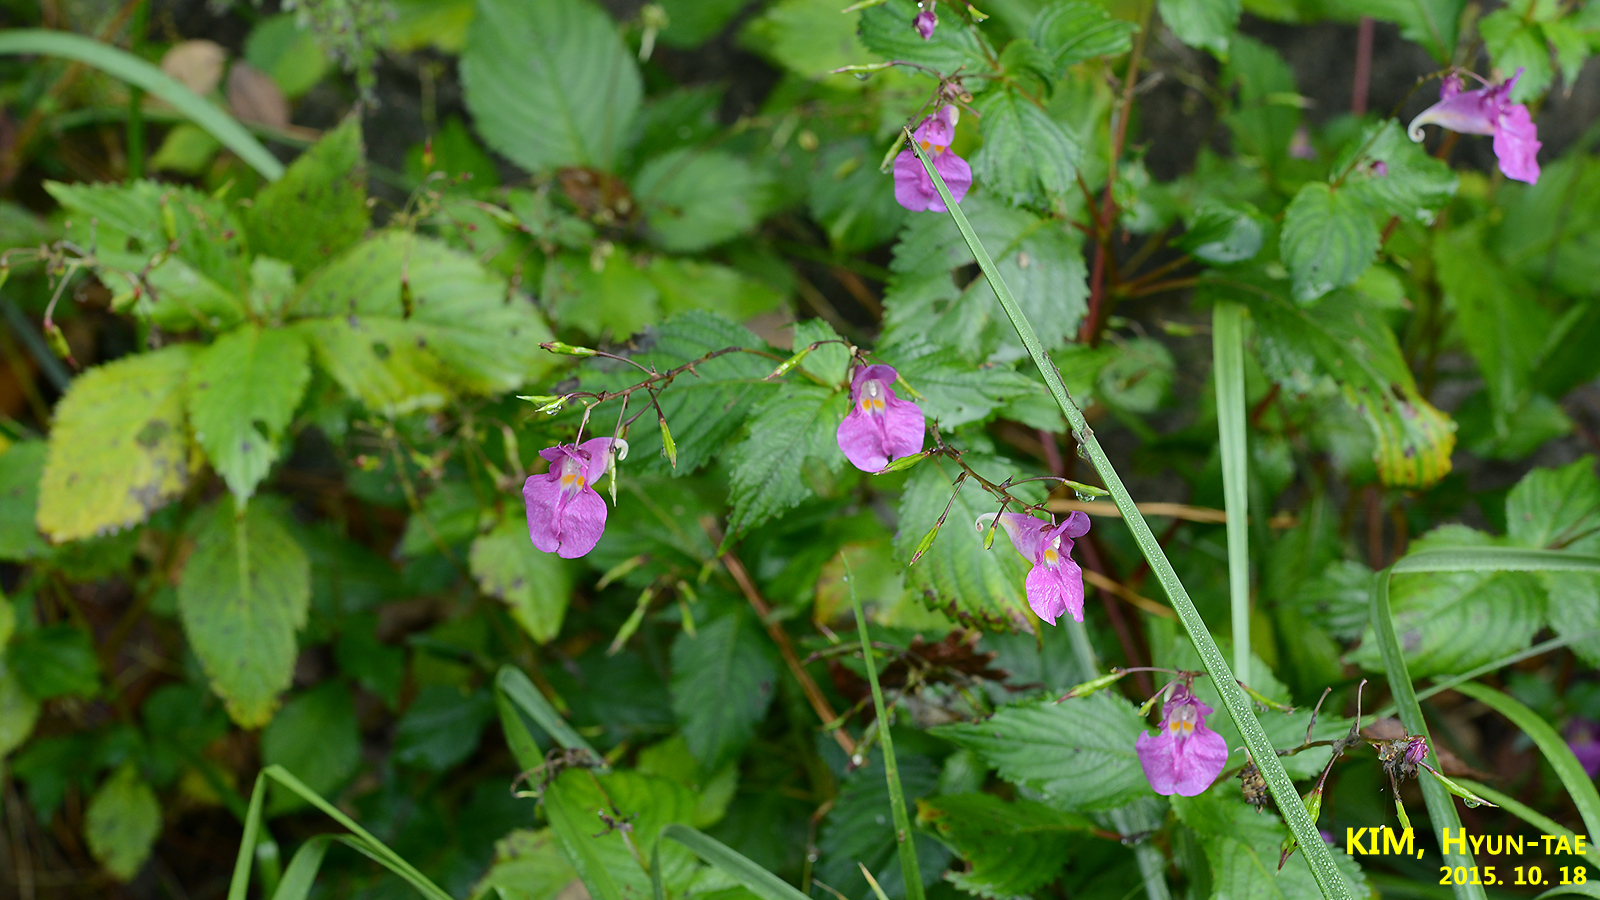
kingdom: Plantae
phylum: Tracheophyta
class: Magnoliopsida
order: Ericales
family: Balsaminaceae
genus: Impatiens
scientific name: Impatiens textorii
